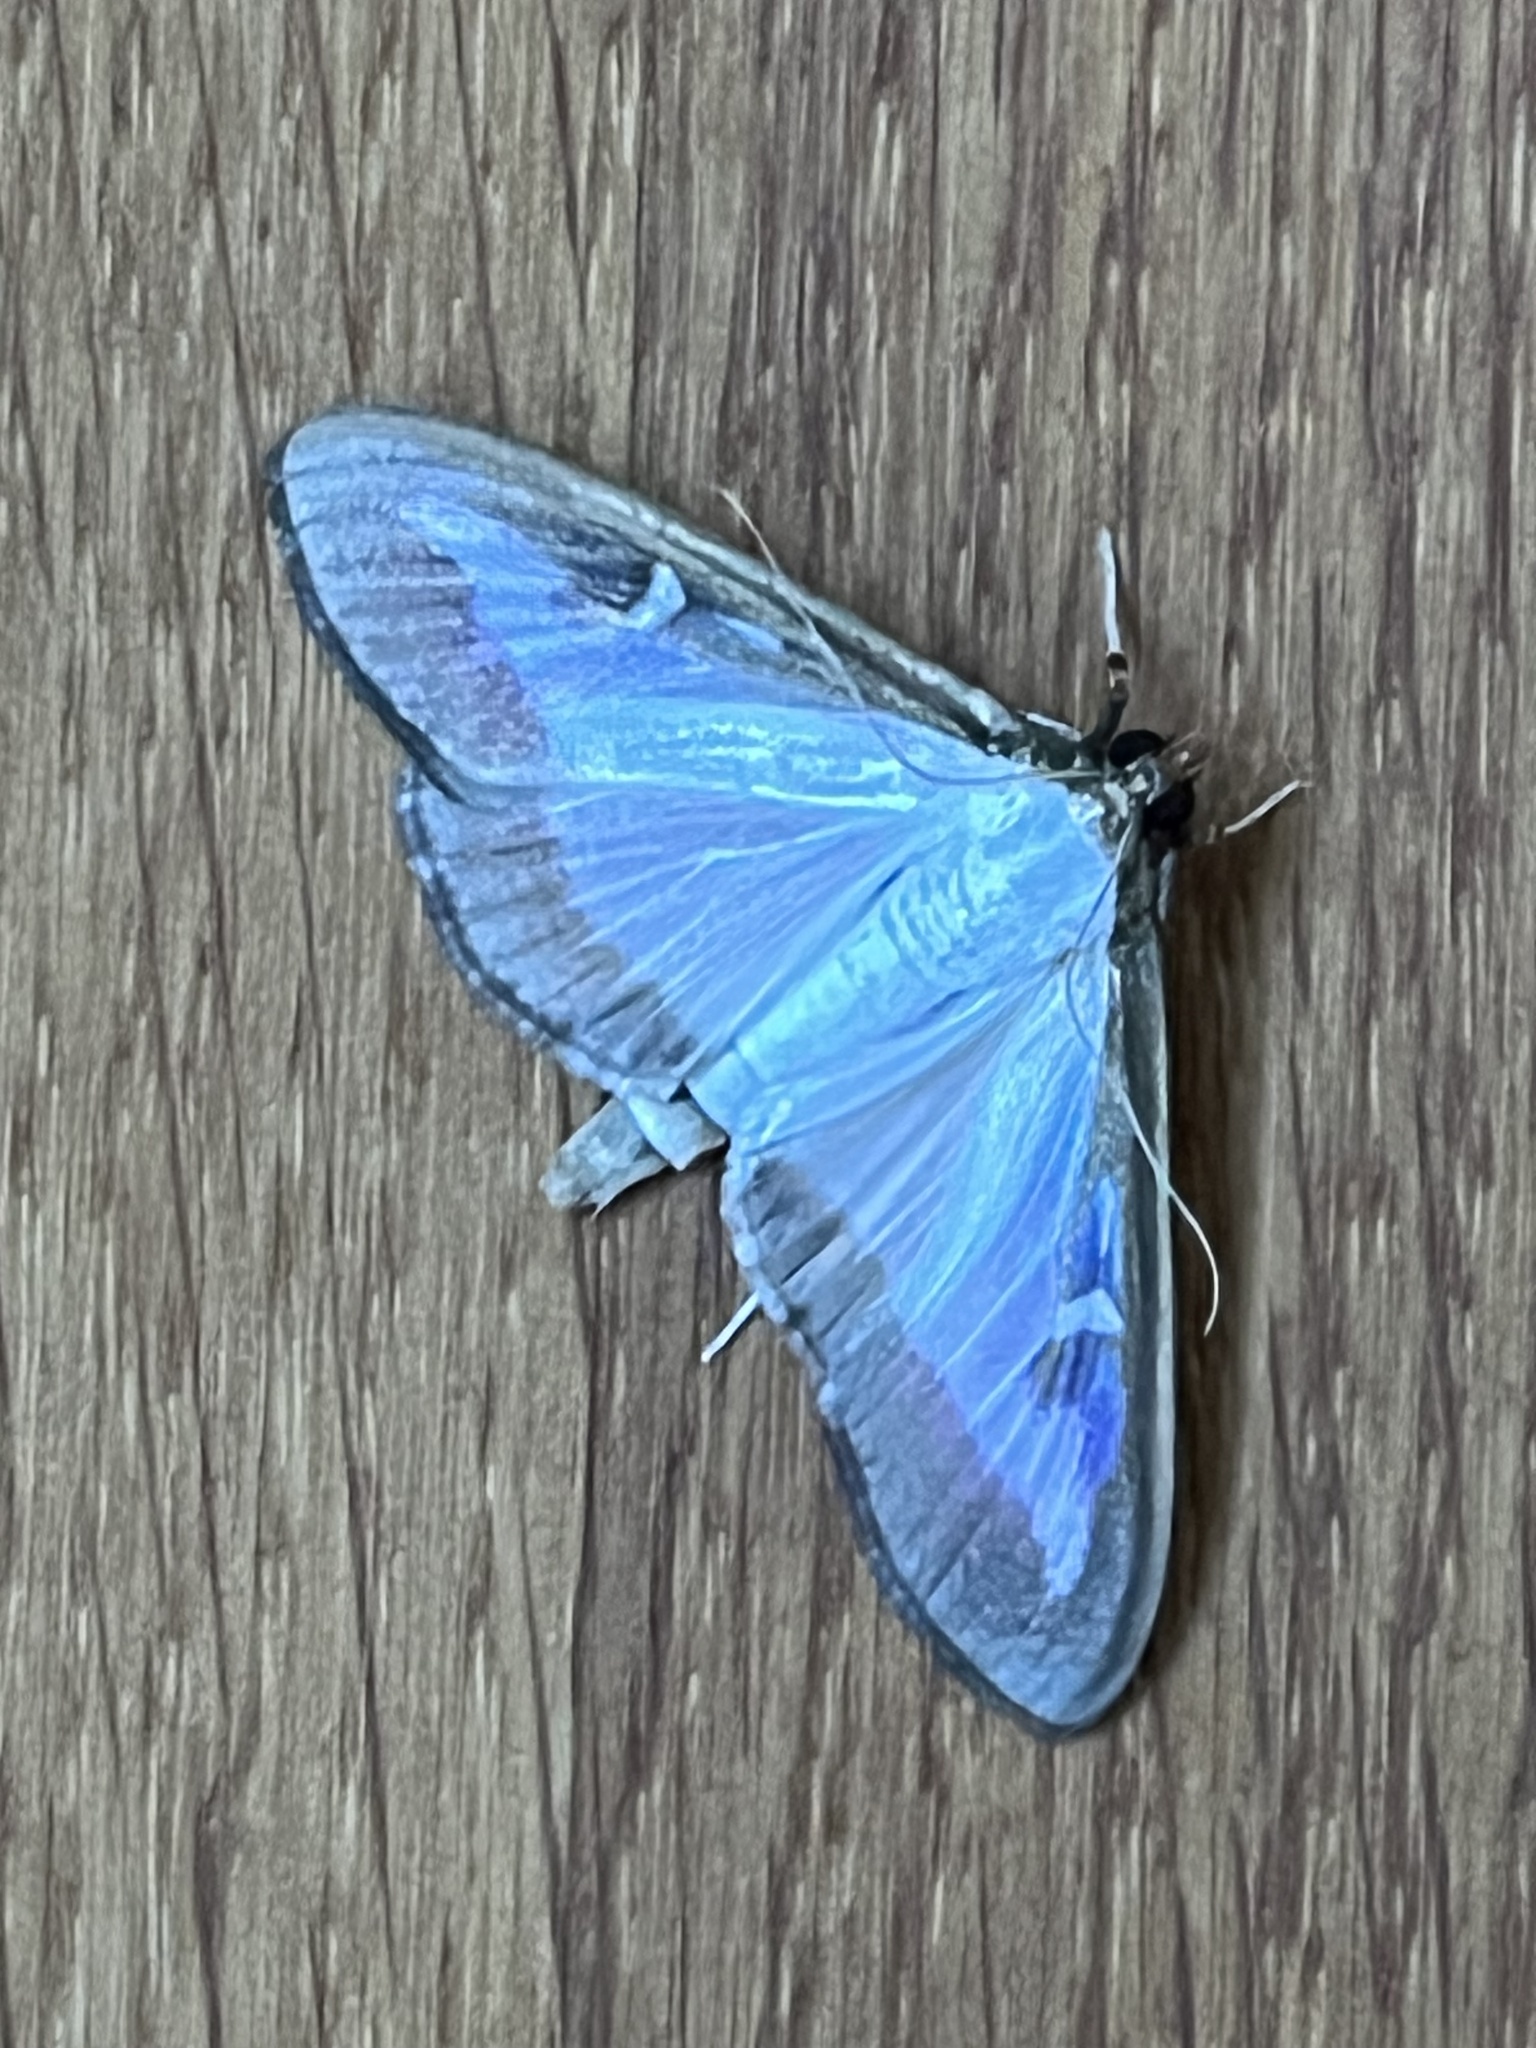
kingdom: Animalia
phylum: Arthropoda
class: Insecta
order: Lepidoptera
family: Crambidae
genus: Cydalima
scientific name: Cydalima perspectalis
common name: Box tree moth
